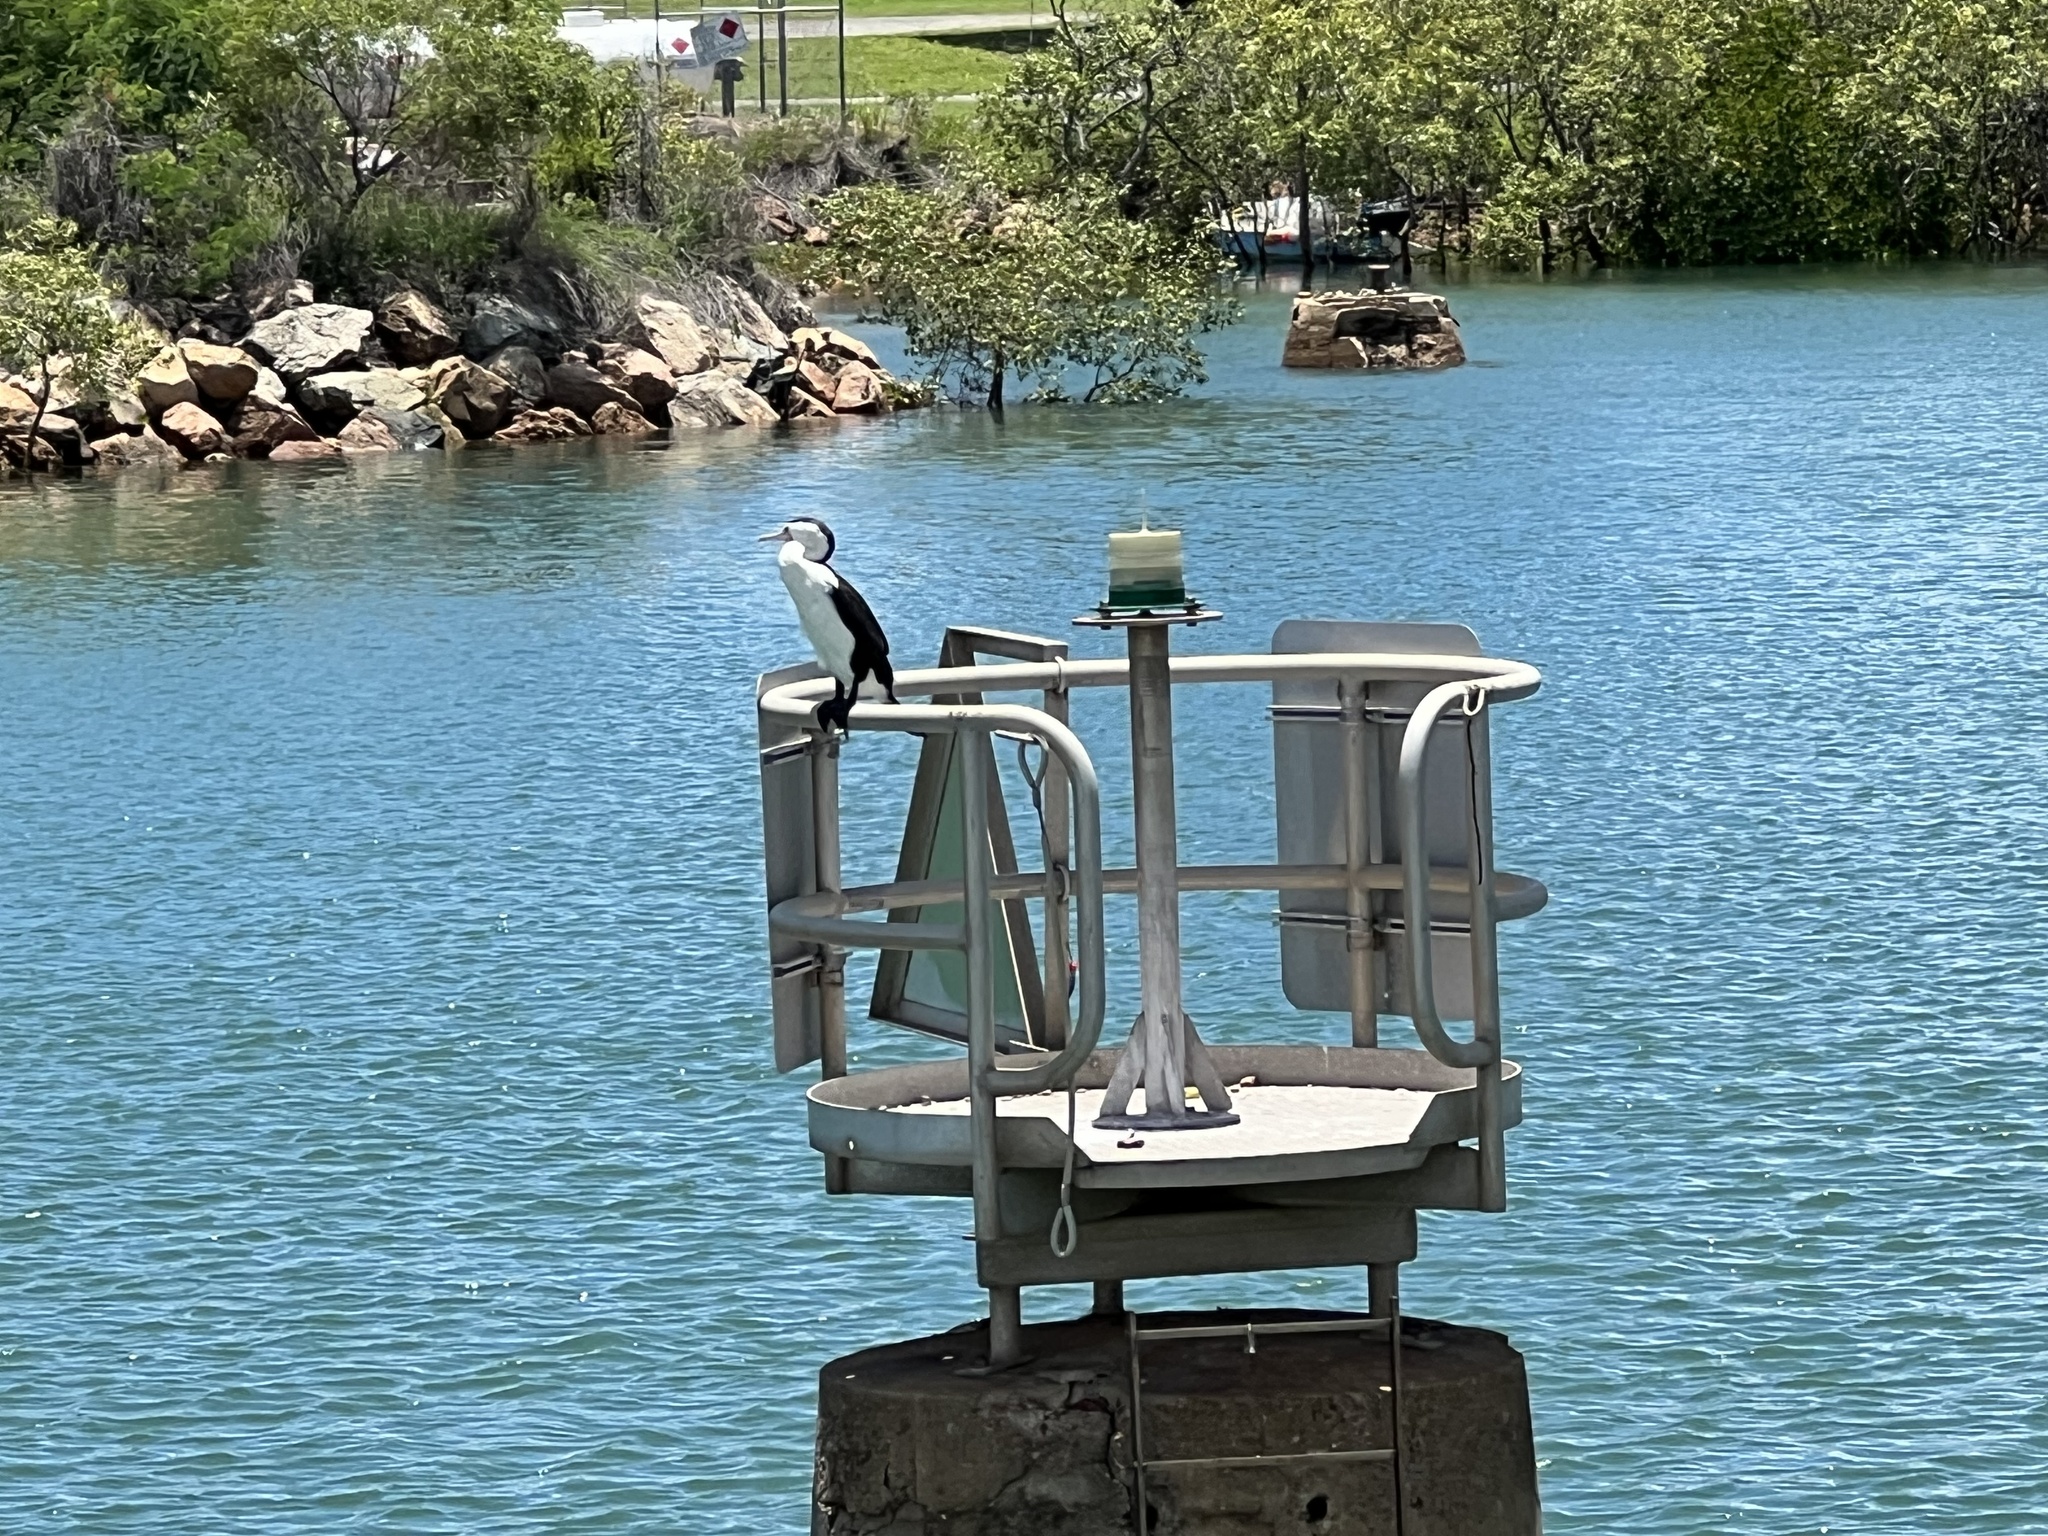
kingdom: Animalia
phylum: Chordata
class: Aves
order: Suliformes
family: Phalacrocoracidae
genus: Phalacrocorax
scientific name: Phalacrocorax varius
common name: Pied cormorant
